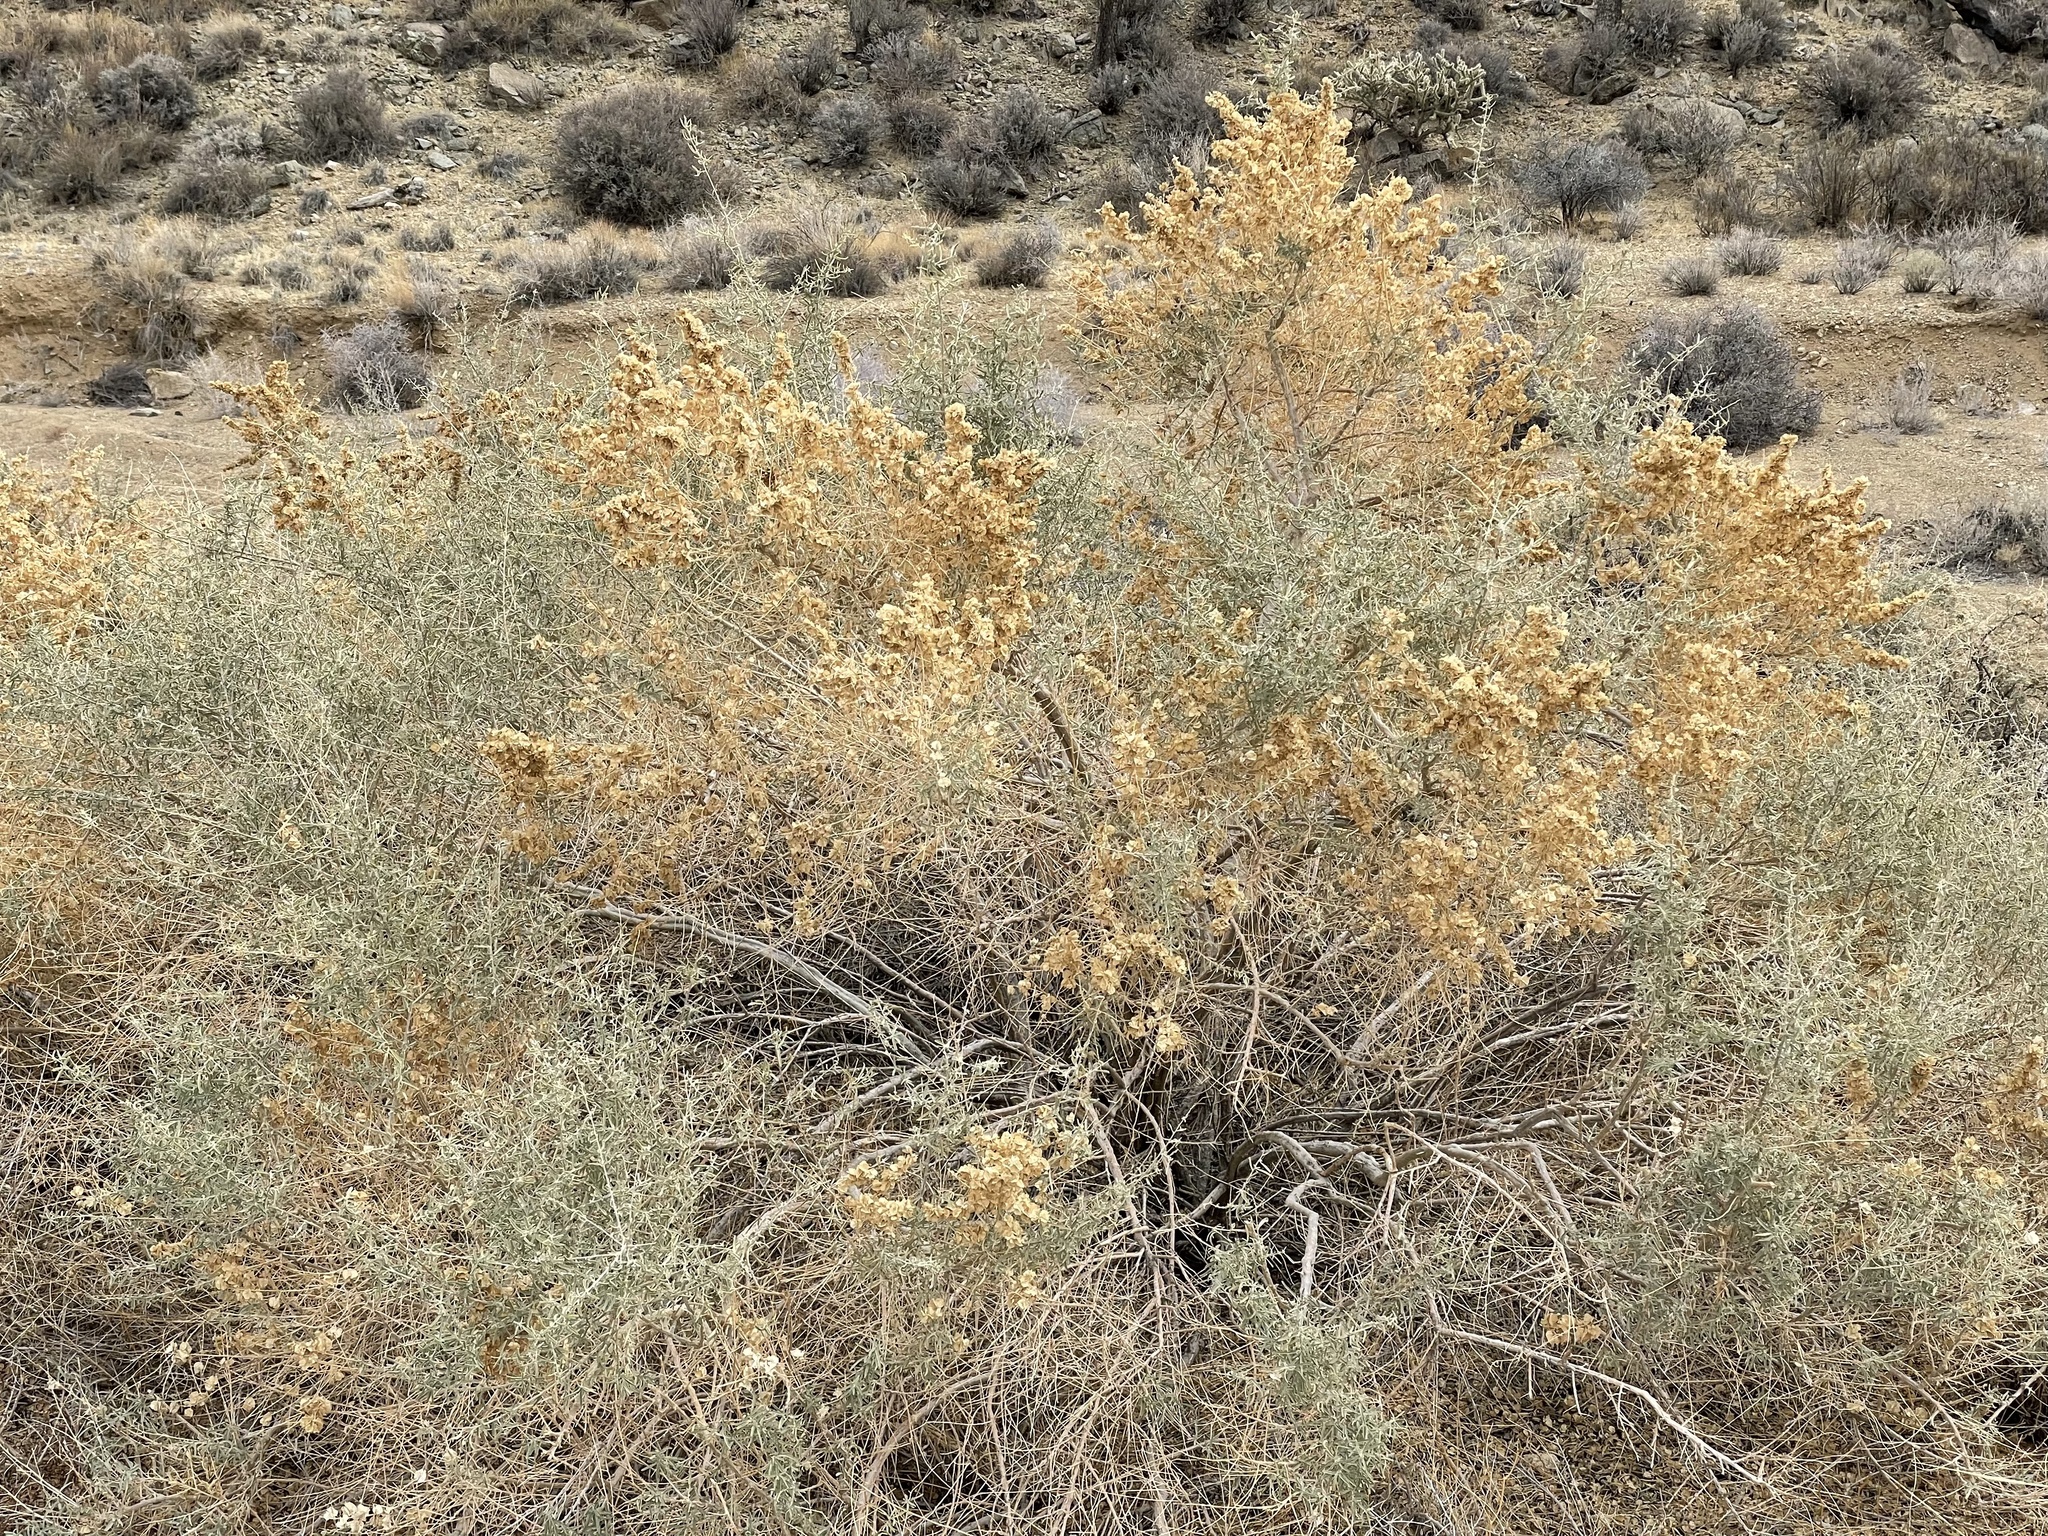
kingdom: Plantae
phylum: Tracheophyta
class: Magnoliopsida
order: Caryophyllales
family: Amaranthaceae
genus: Atriplex
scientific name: Atriplex canescens
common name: Four-wing saltbush
